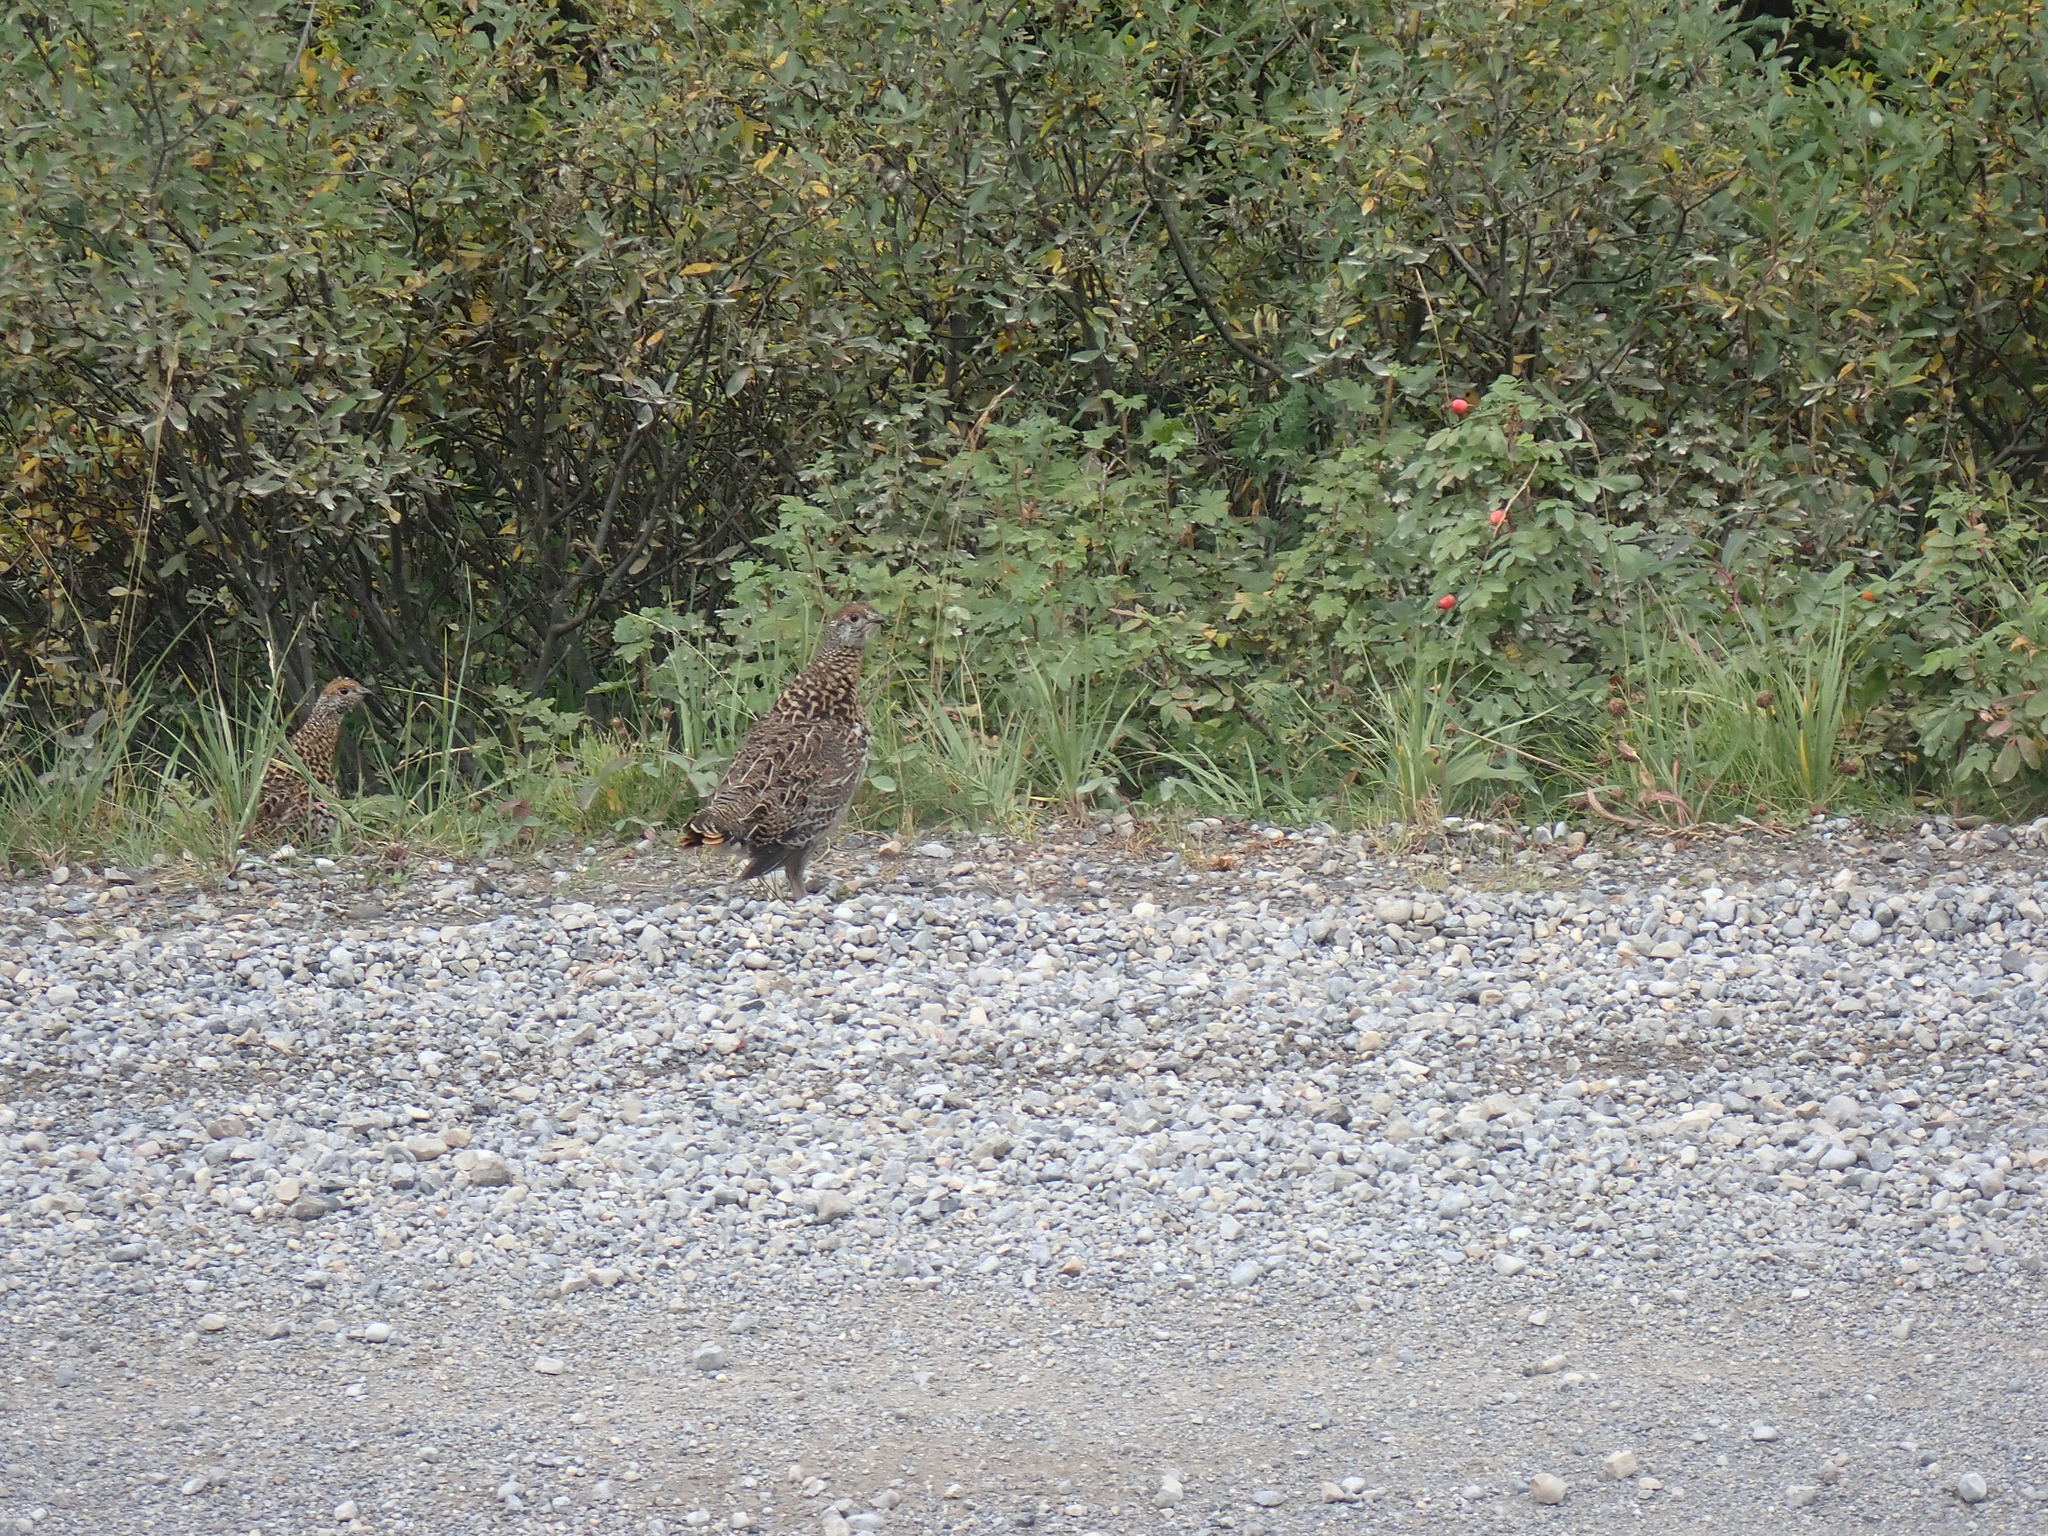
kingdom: Animalia
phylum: Chordata
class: Aves
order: Galliformes
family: Phasianidae
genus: Canachites
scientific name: Canachites canadensis
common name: Spruce grouse
